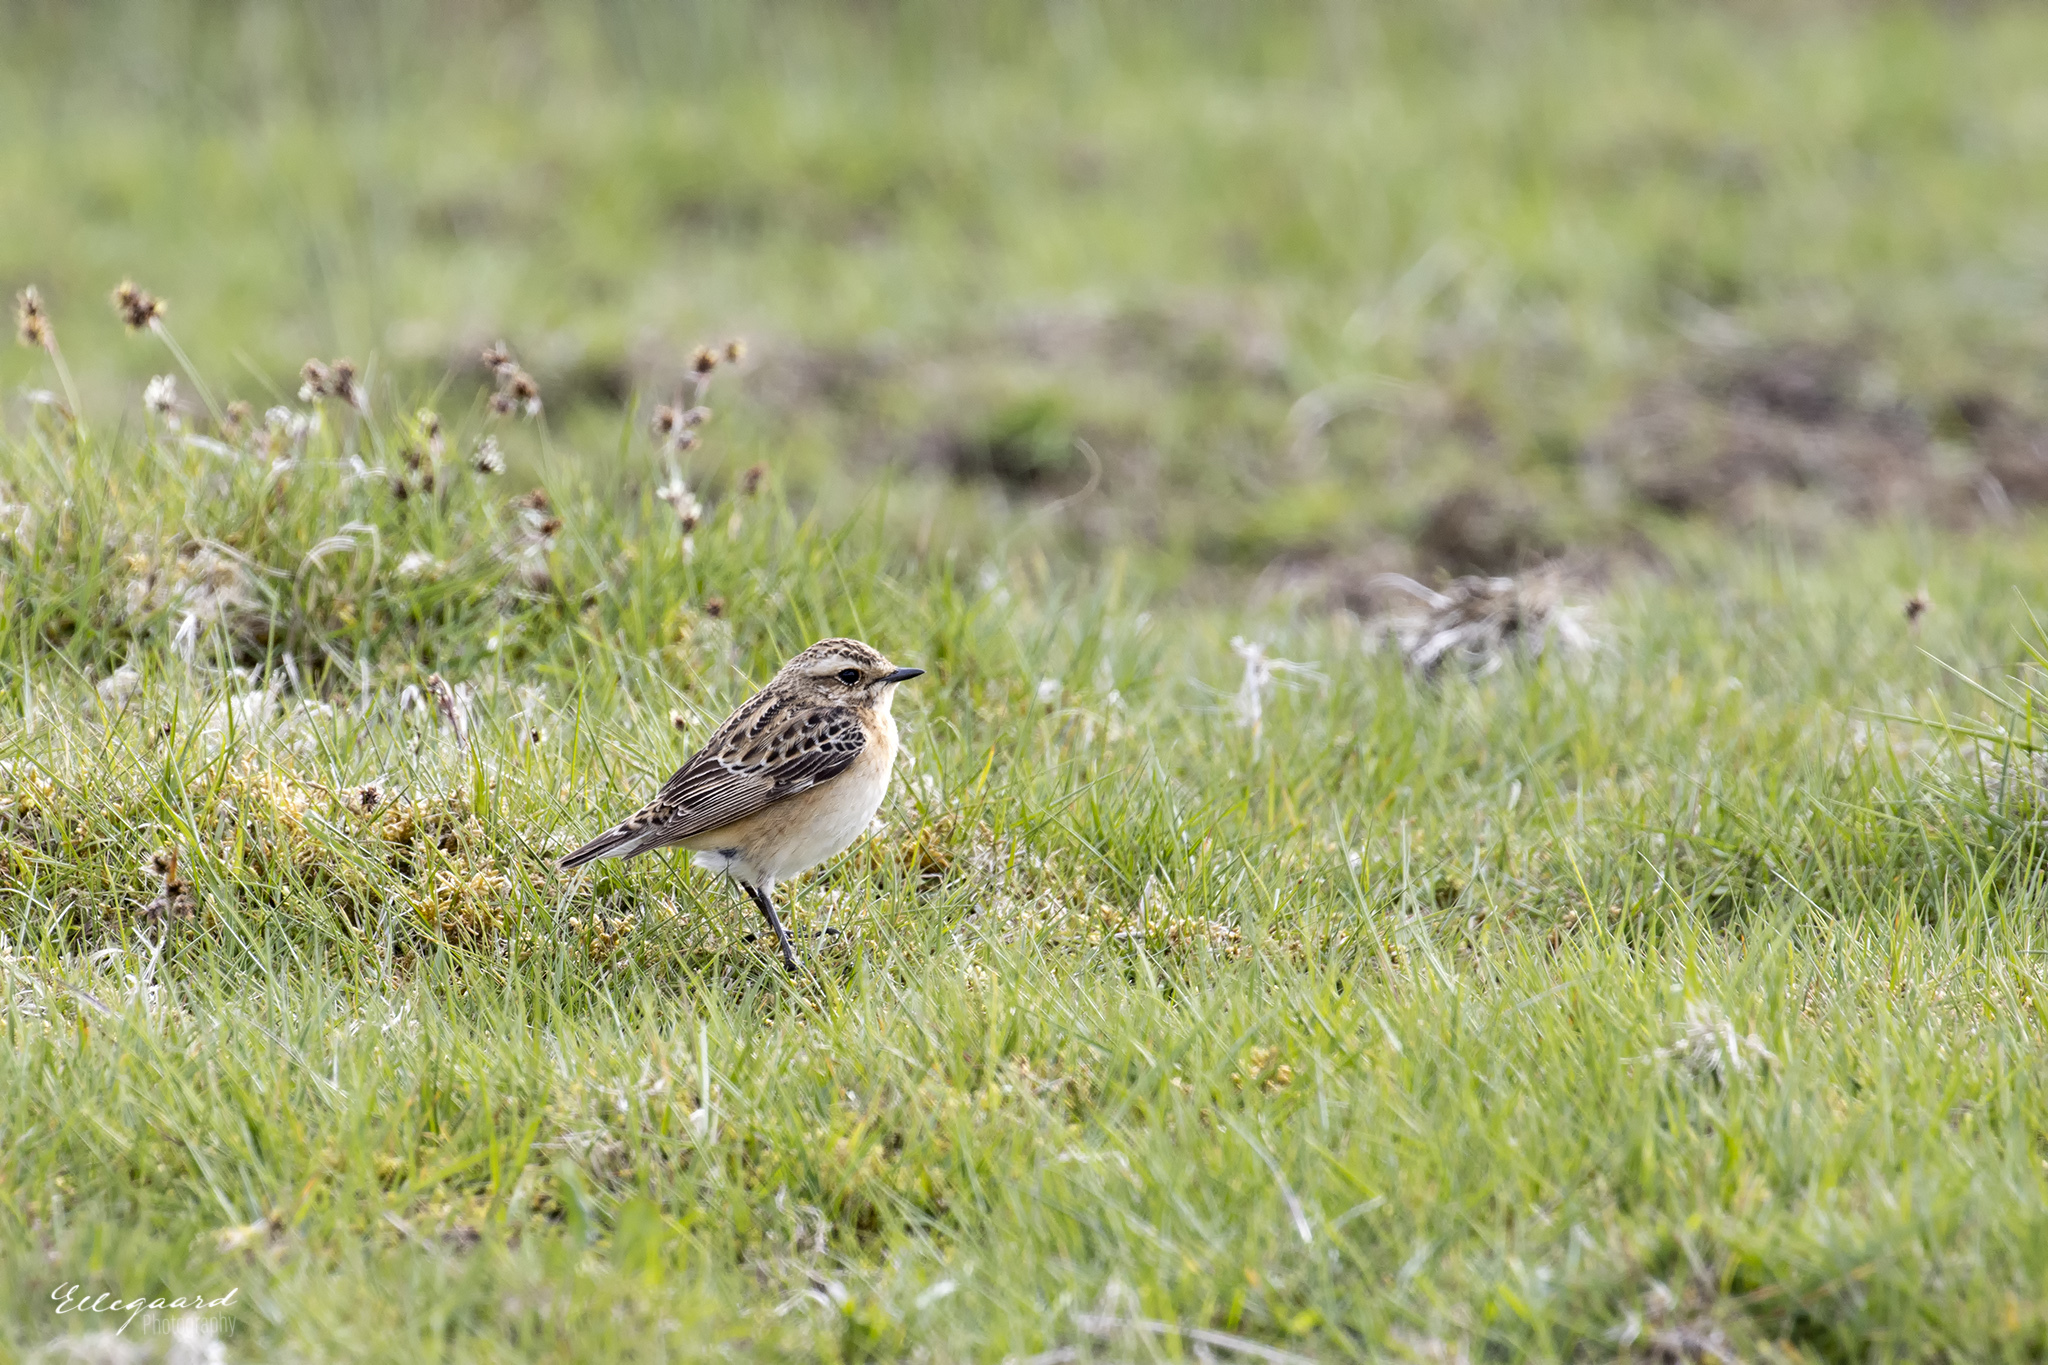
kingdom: Animalia
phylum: Chordata
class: Aves
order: Passeriformes
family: Muscicapidae
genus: Saxicola
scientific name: Saxicola rubetra
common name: Whinchat
